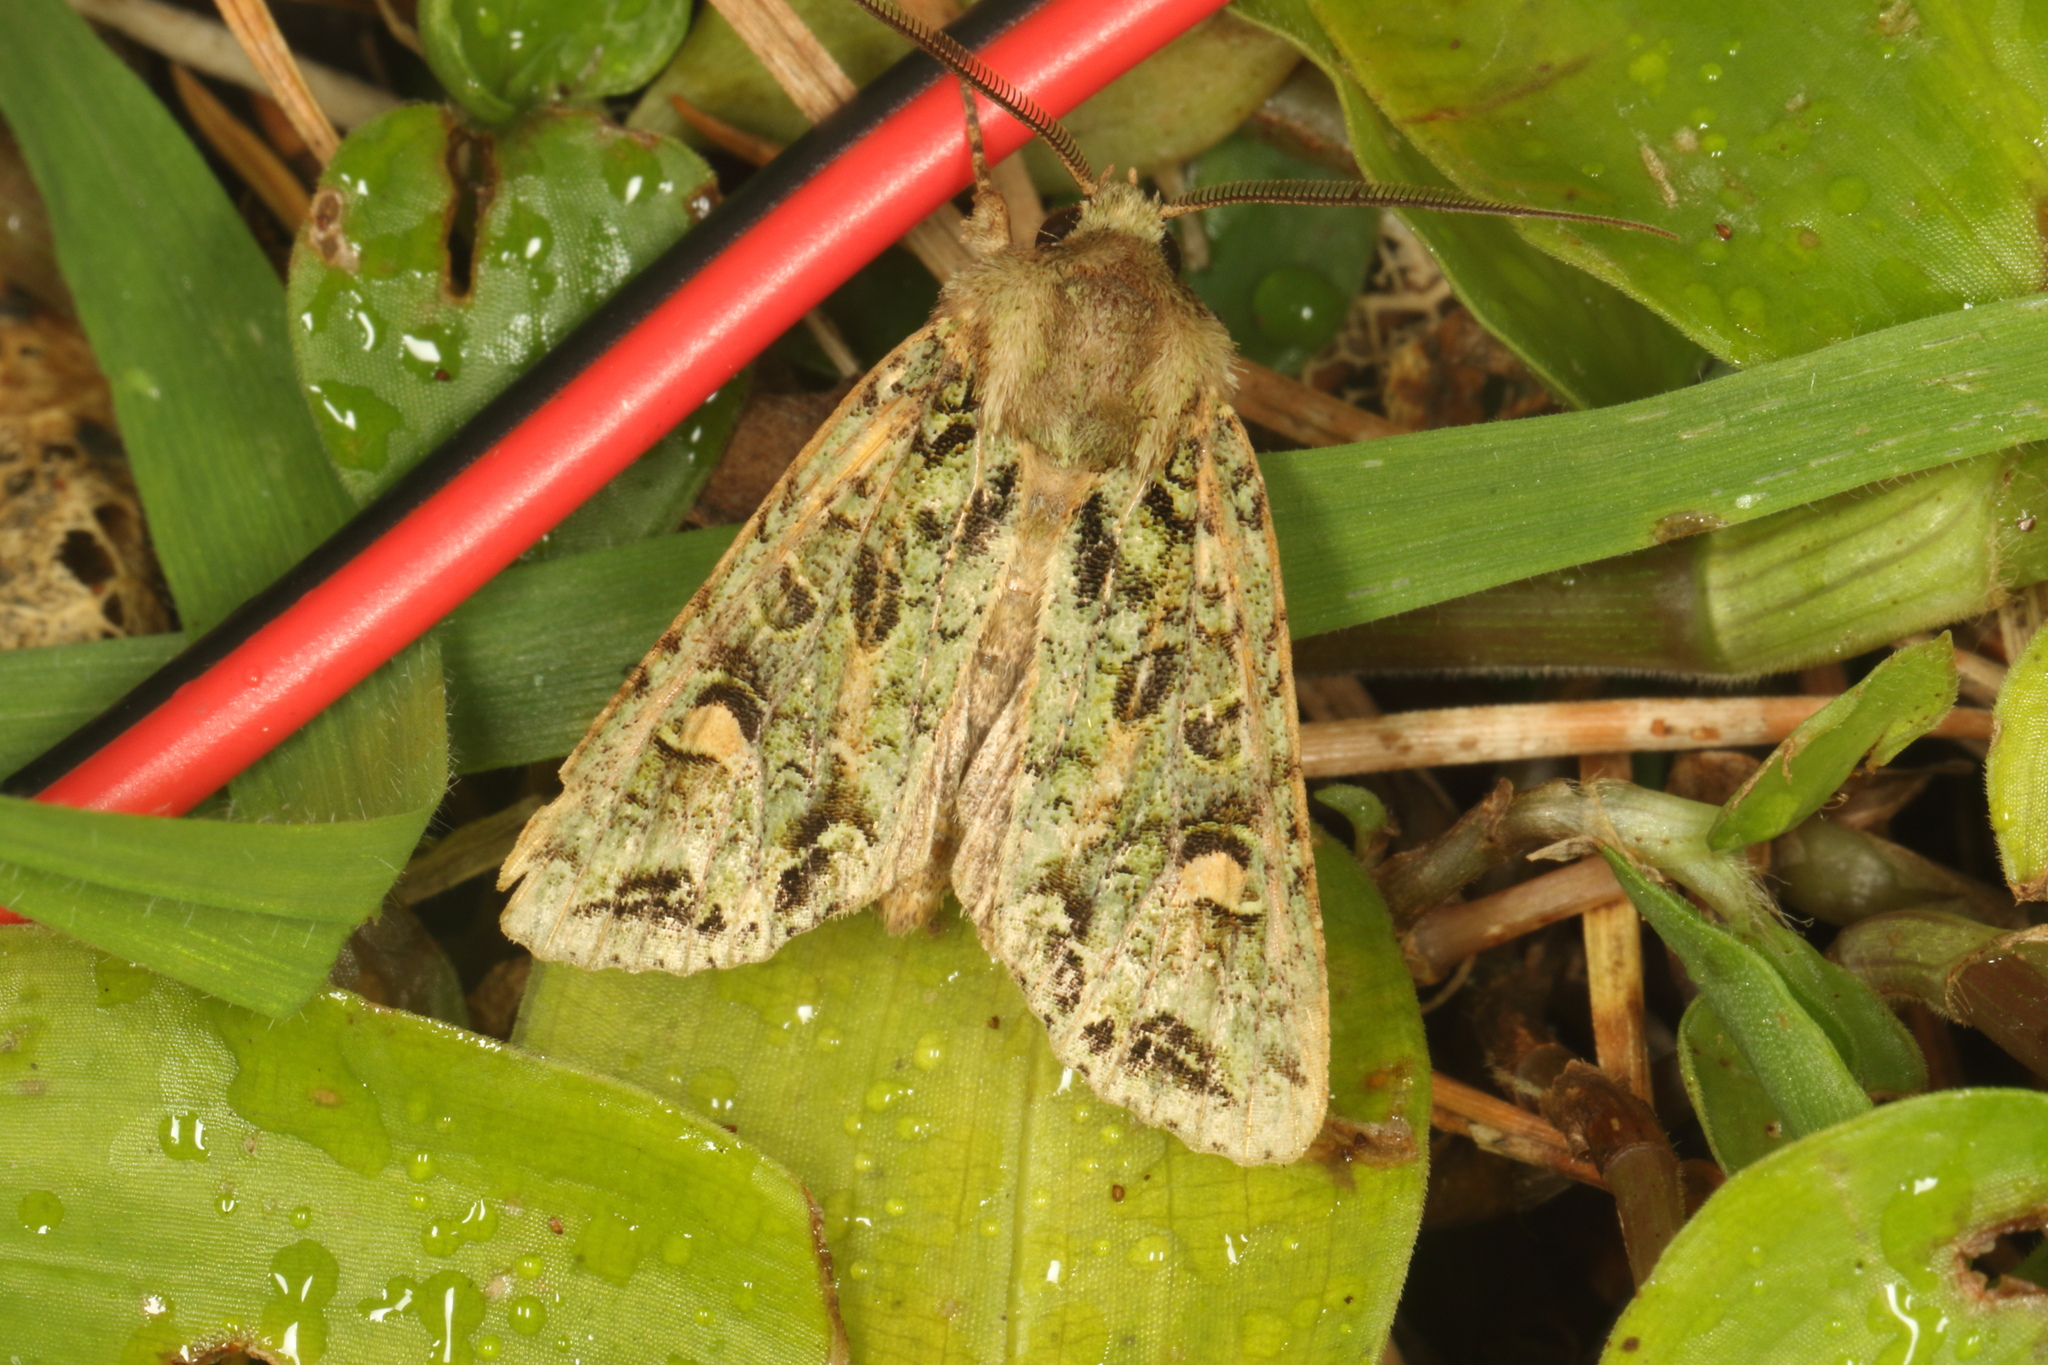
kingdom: Animalia
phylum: Arthropoda
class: Insecta
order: Lepidoptera
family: Noctuidae
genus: Ichneutica
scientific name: Ichneutica
